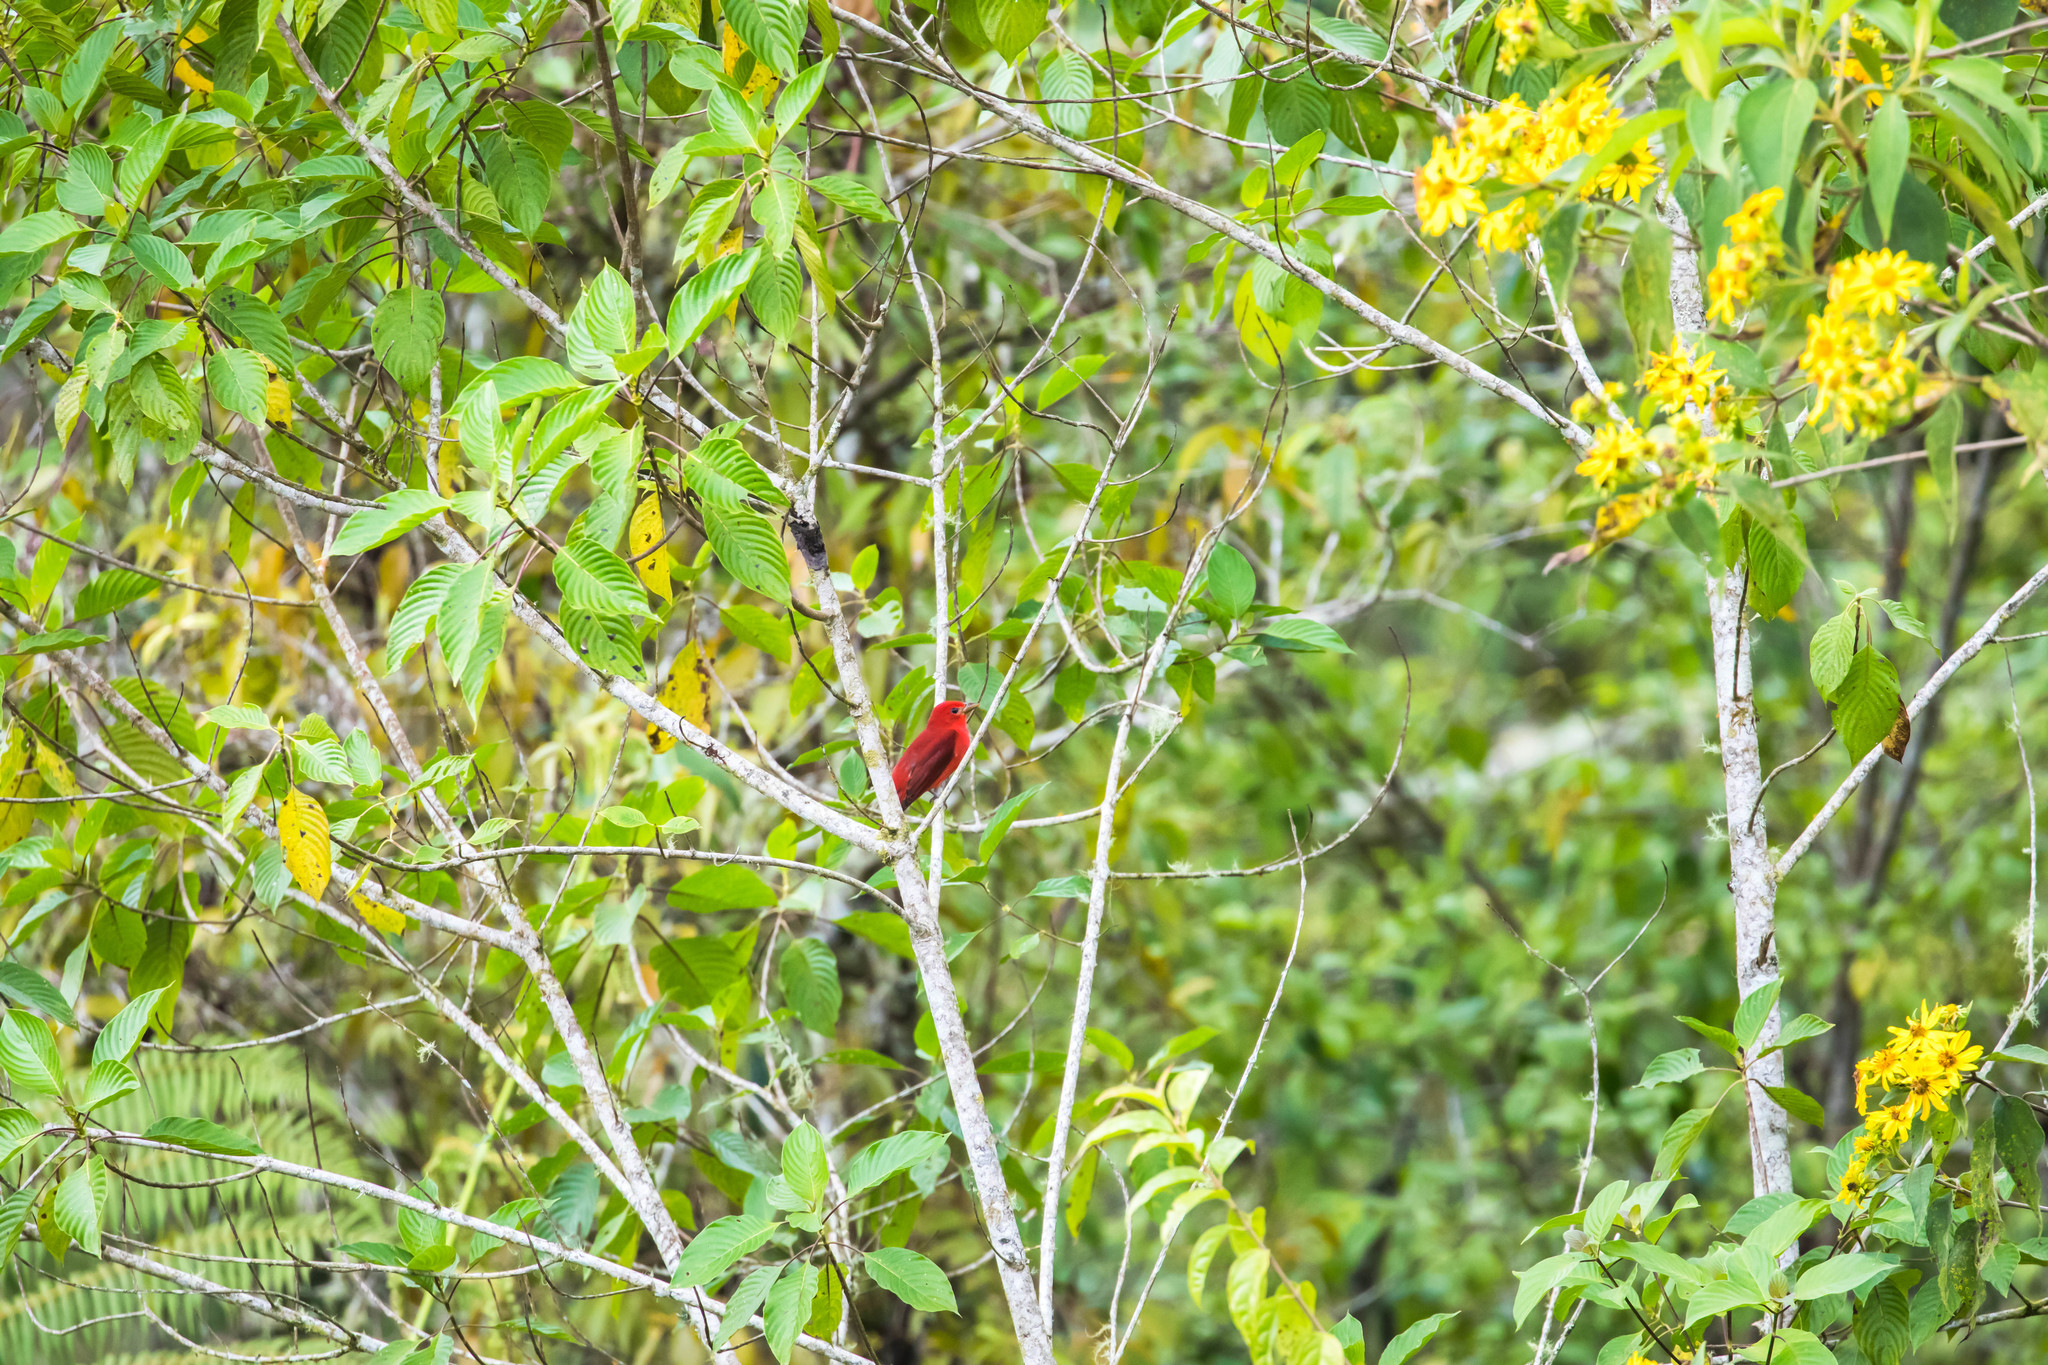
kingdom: Animalia
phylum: Chordata
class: Aves
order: Passeriformes
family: Cardinalidae
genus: Piranga
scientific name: Piranga rubra
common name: Summer tanager
